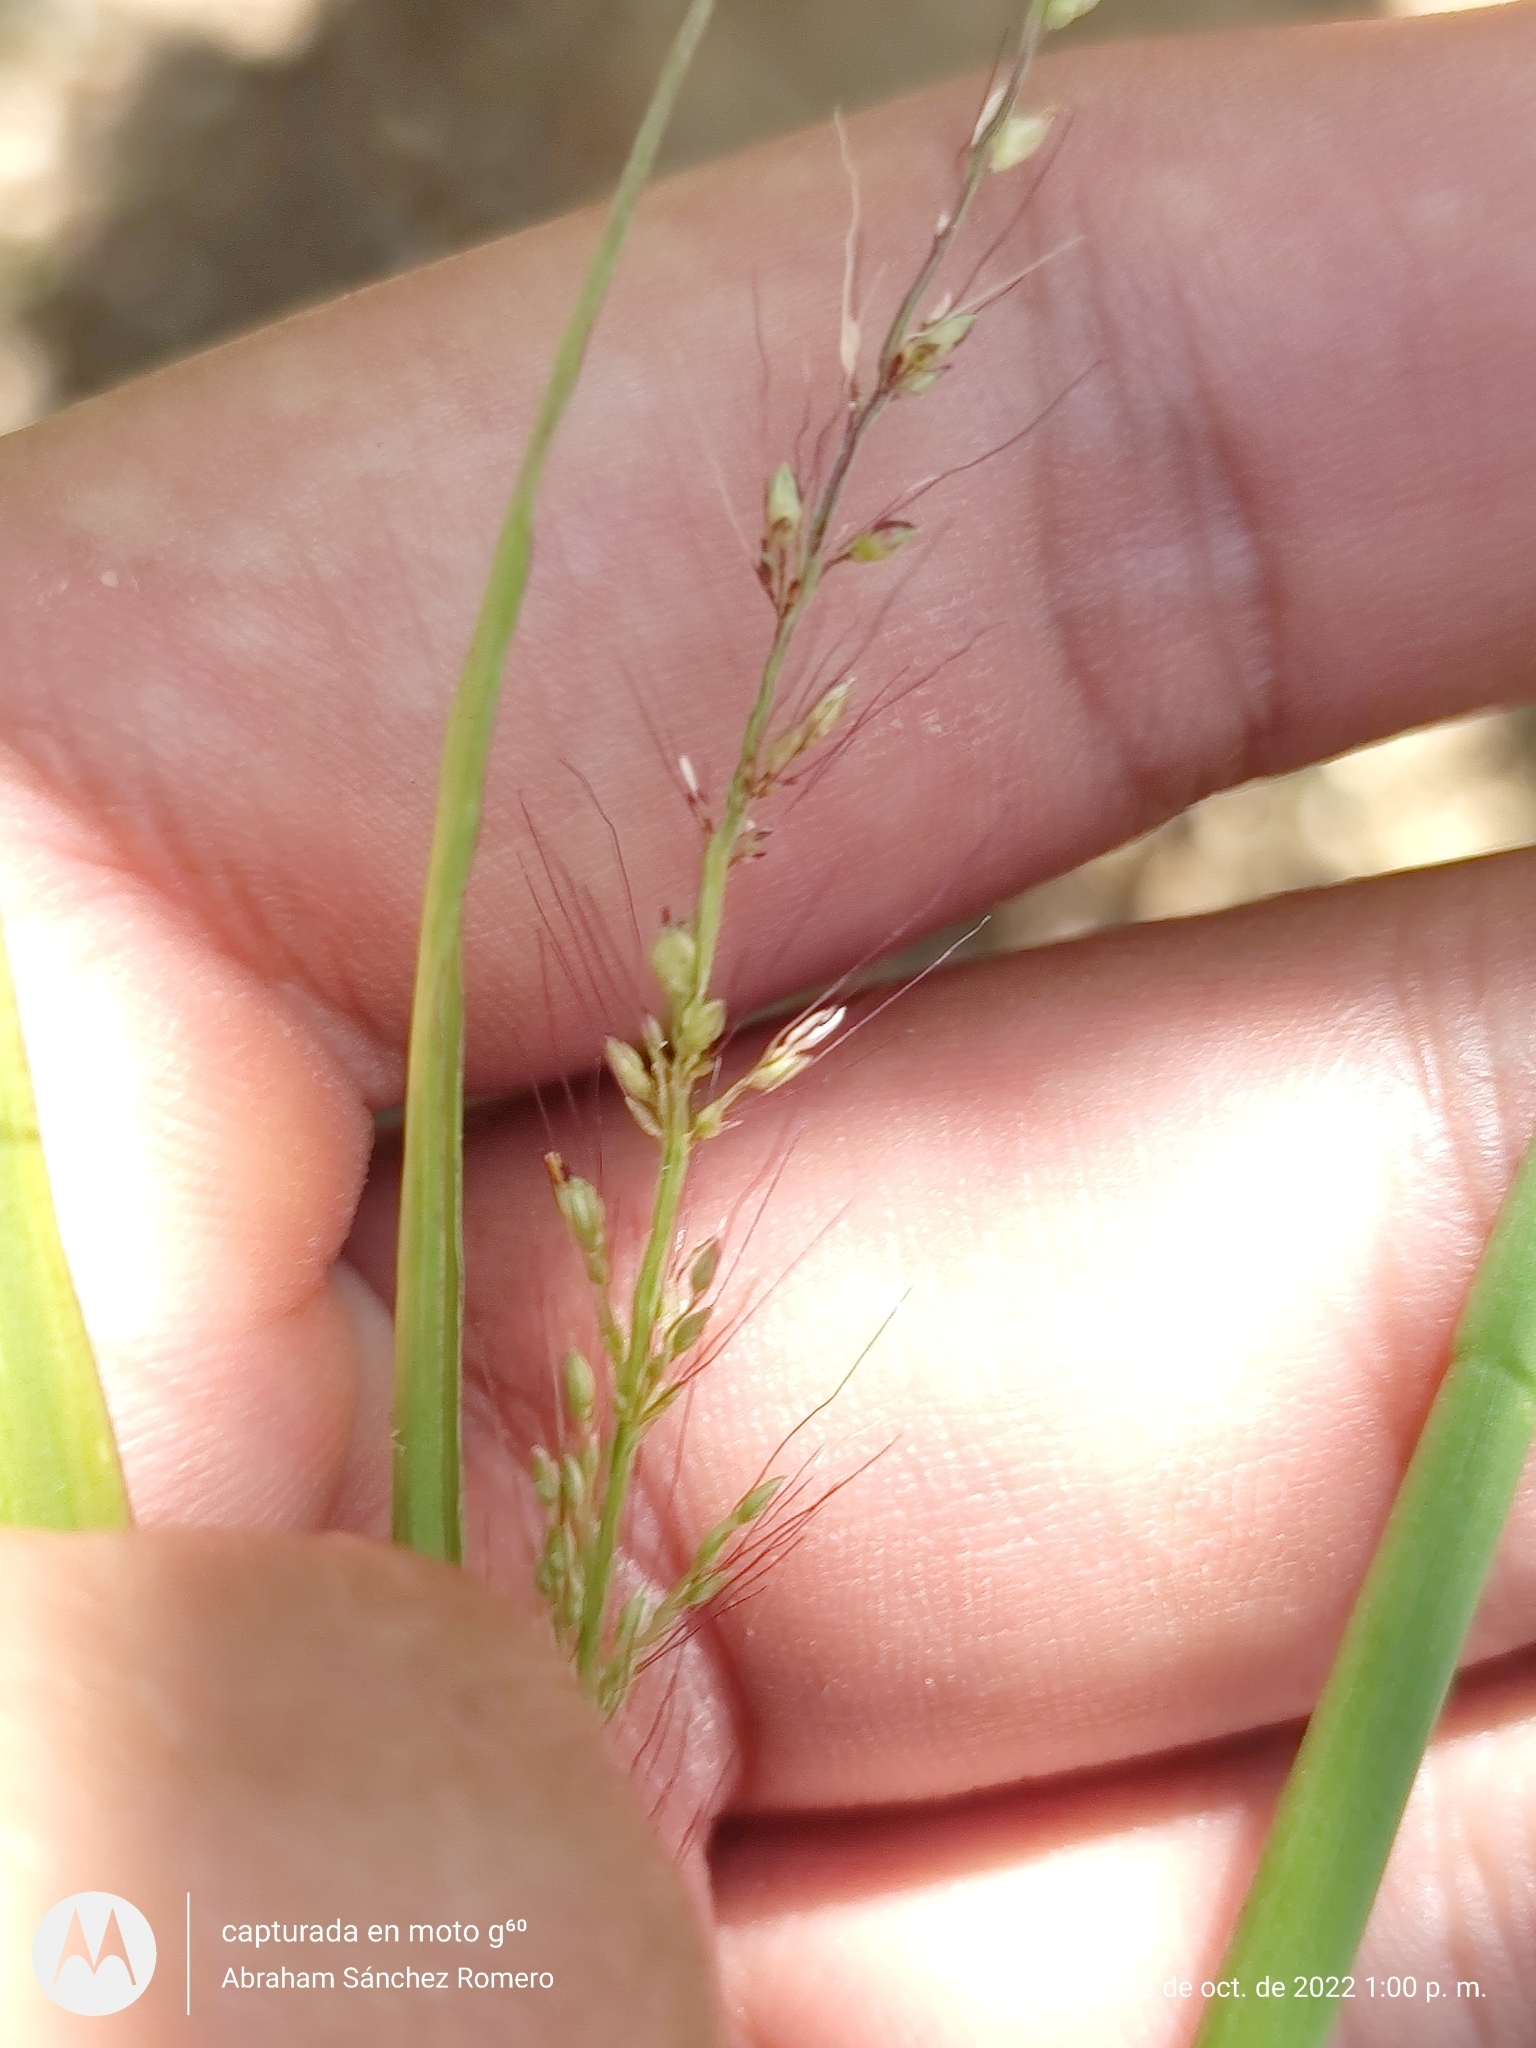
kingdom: Plantae
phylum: Tracheophyta
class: Liliopsida
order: Poales
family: Poaceae
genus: Setaria
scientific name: Setaria liebmannii
